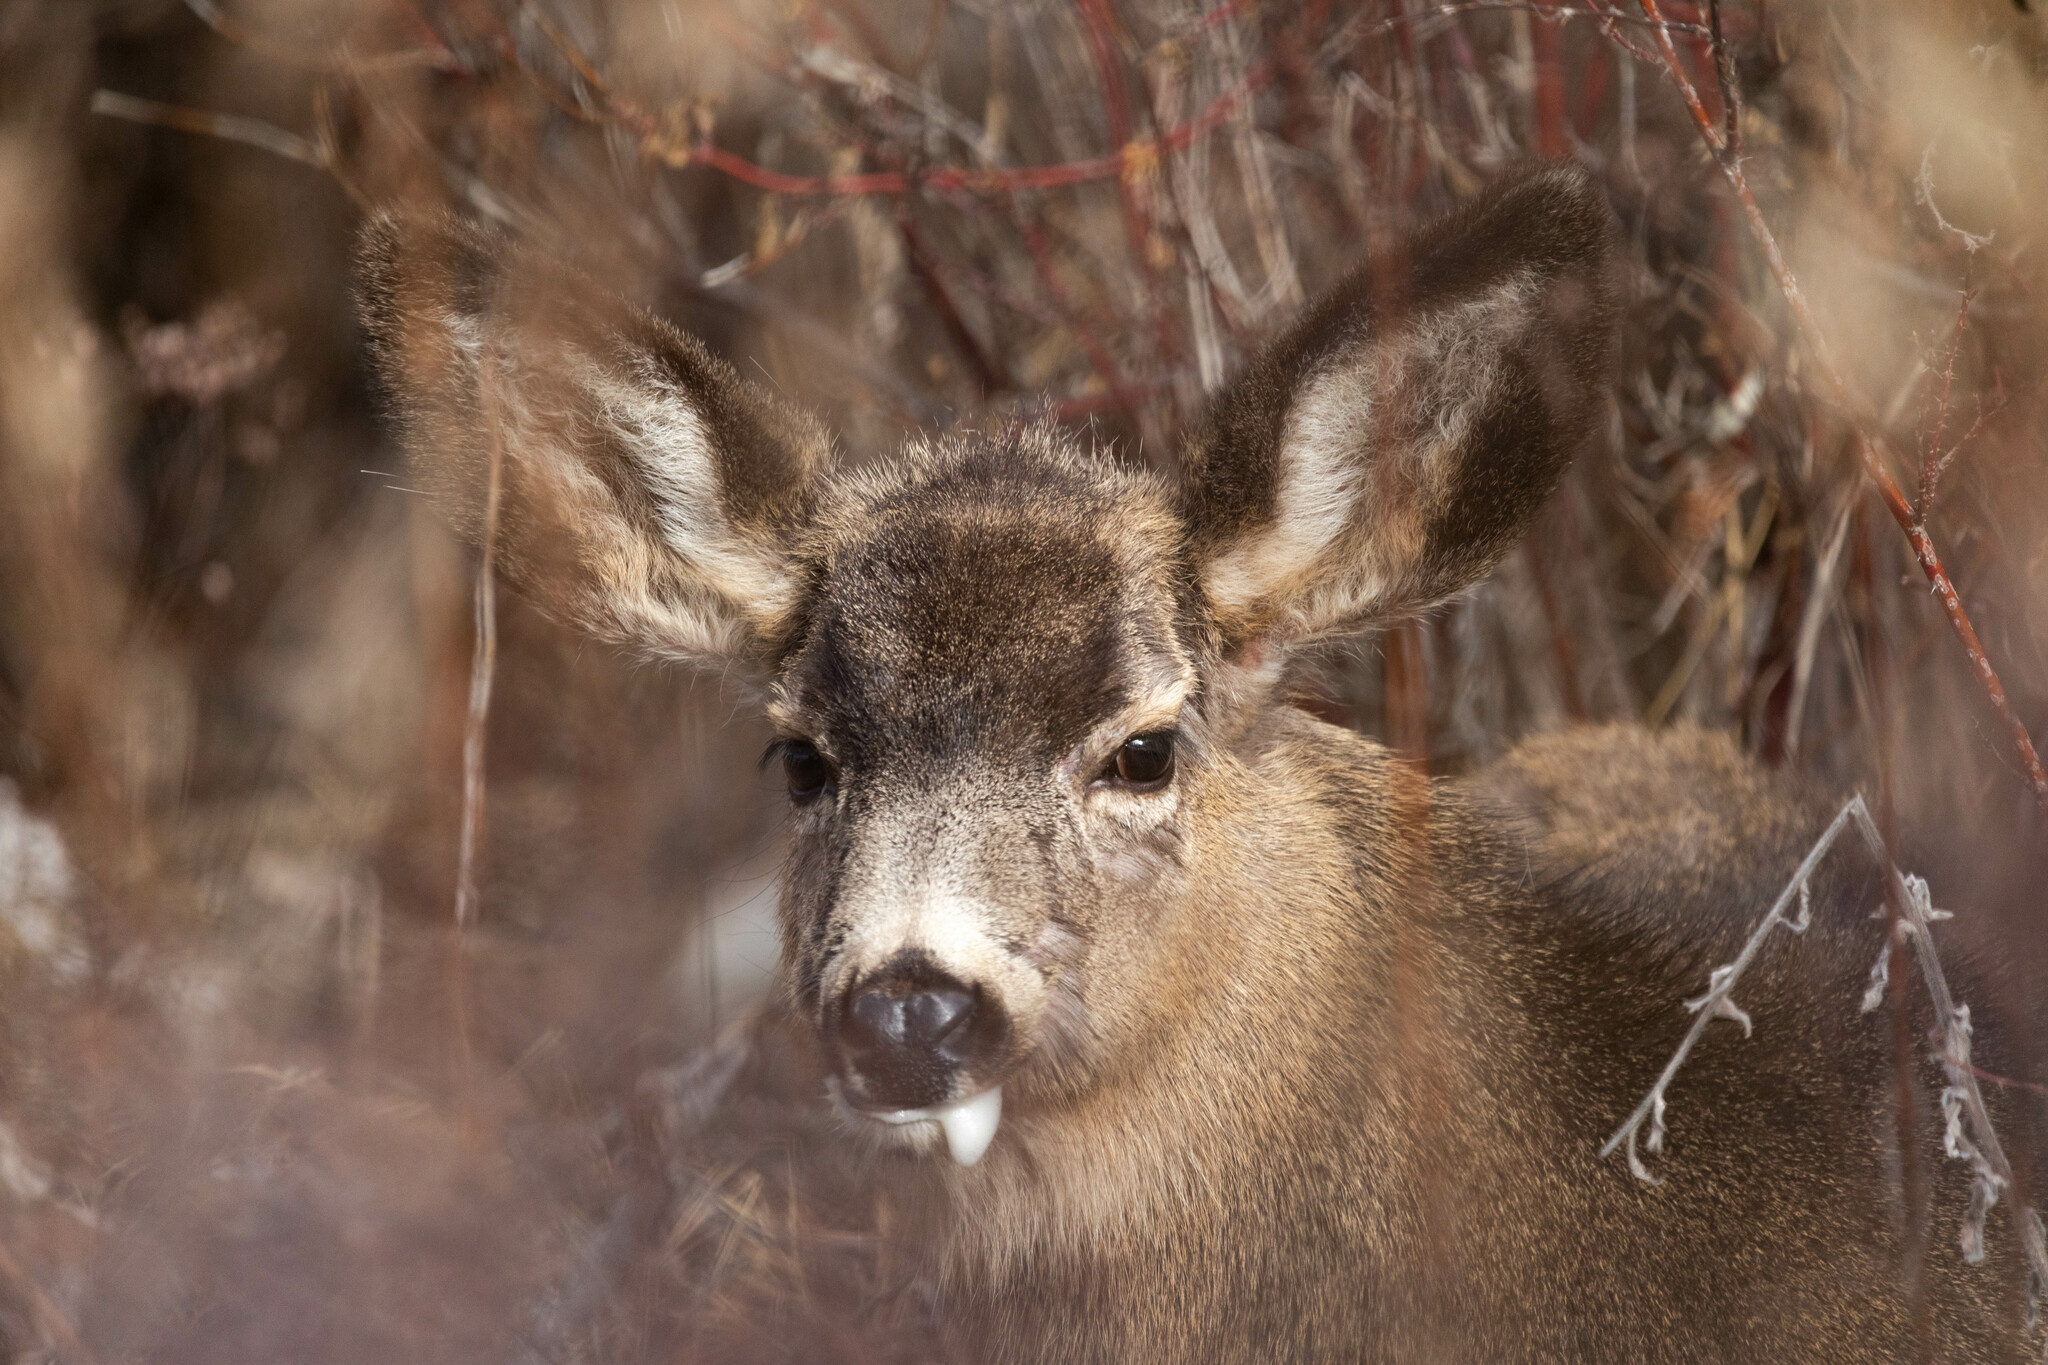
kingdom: Animalia
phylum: Chordata
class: Mammalia
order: Artiodactyla
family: Cervidae
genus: Odocoileus
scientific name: Odocoileus hemionus
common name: Mule deer
